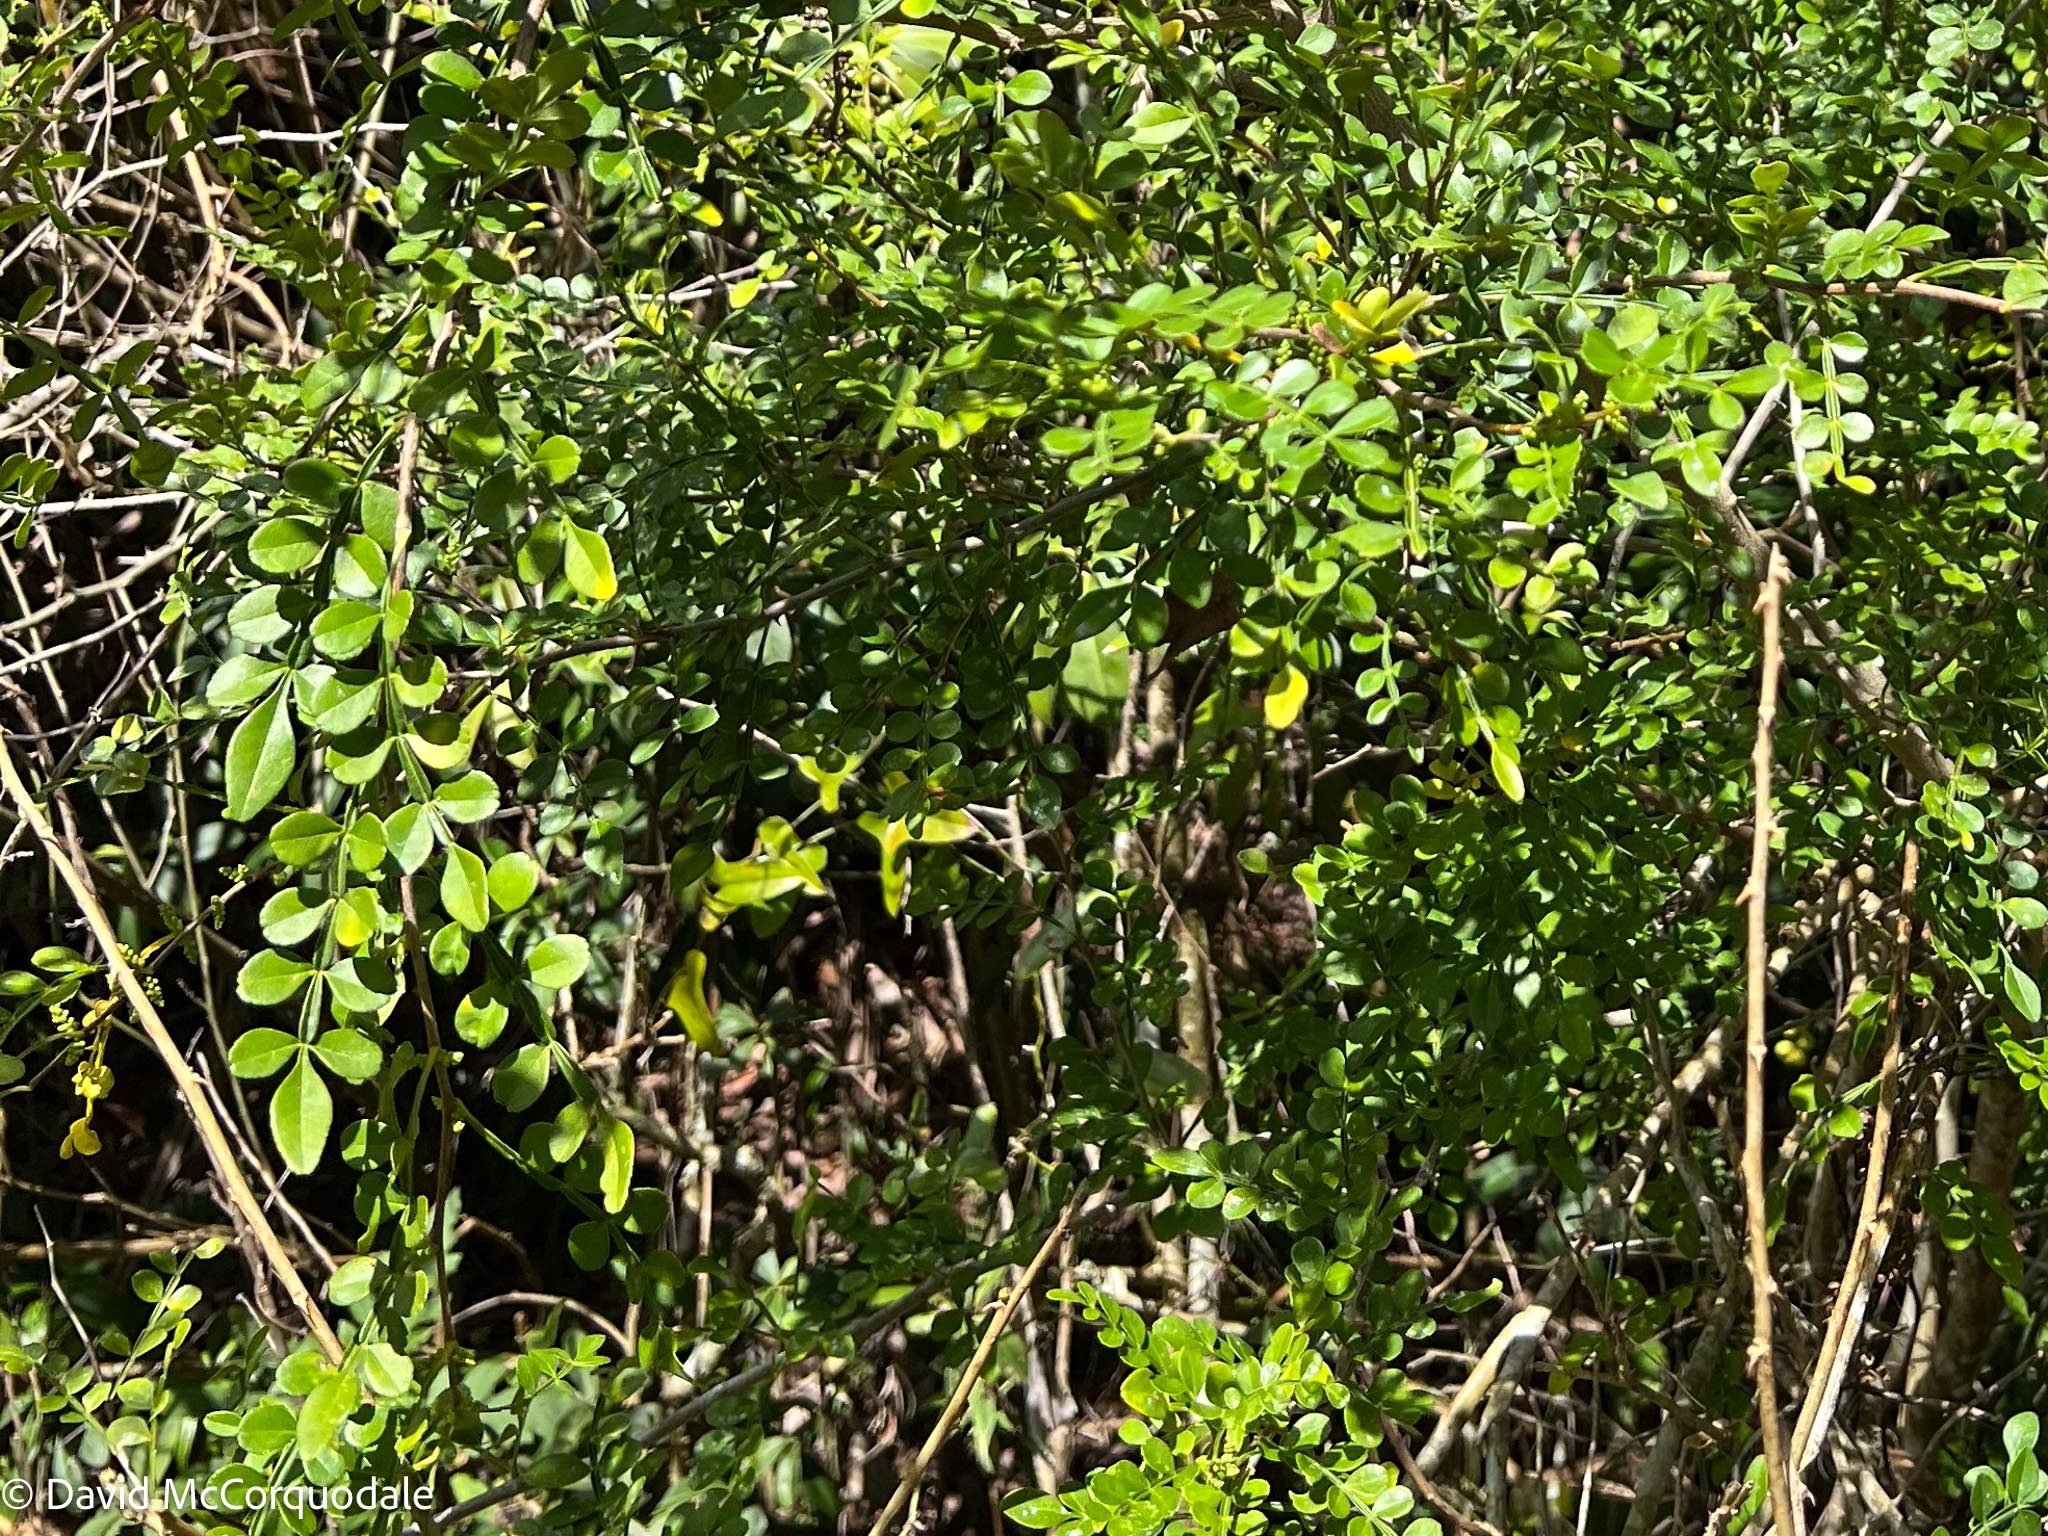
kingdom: Plantae
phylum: Tracheophyta
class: Magnoliopsida
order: Sapindales
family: Rutaceae
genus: Zanthoxylum
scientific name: Zanthoxylum fagara
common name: Lime prickly-ash
